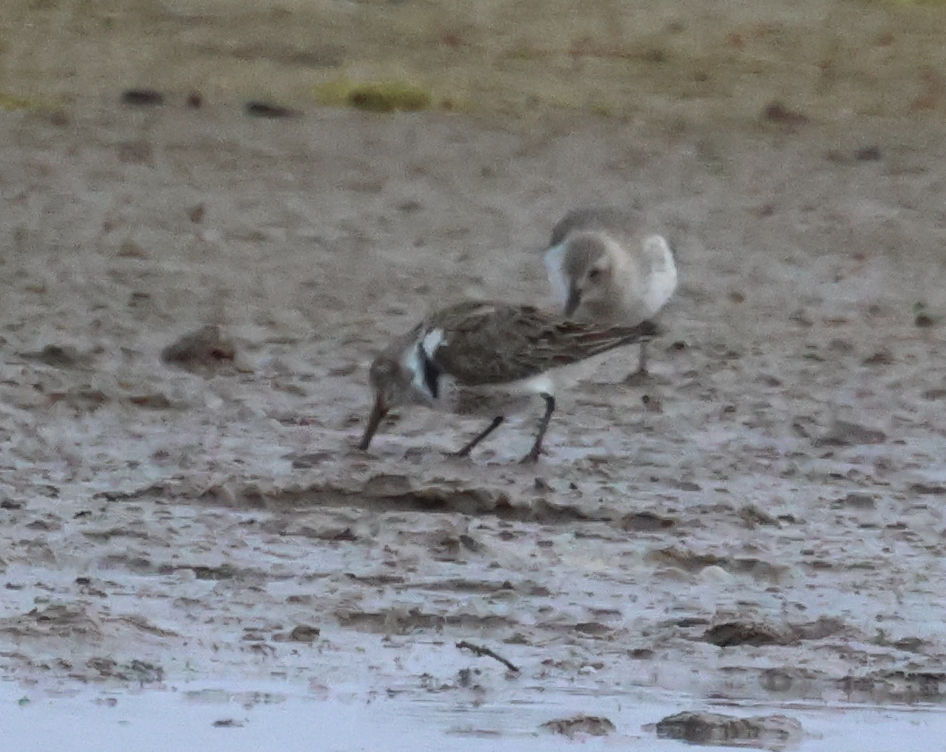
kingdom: Animalia
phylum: Chordata
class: Aves
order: Charadriiformes
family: Scolopacidae
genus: Calidris
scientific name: Calidris alpina
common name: Dunlin
